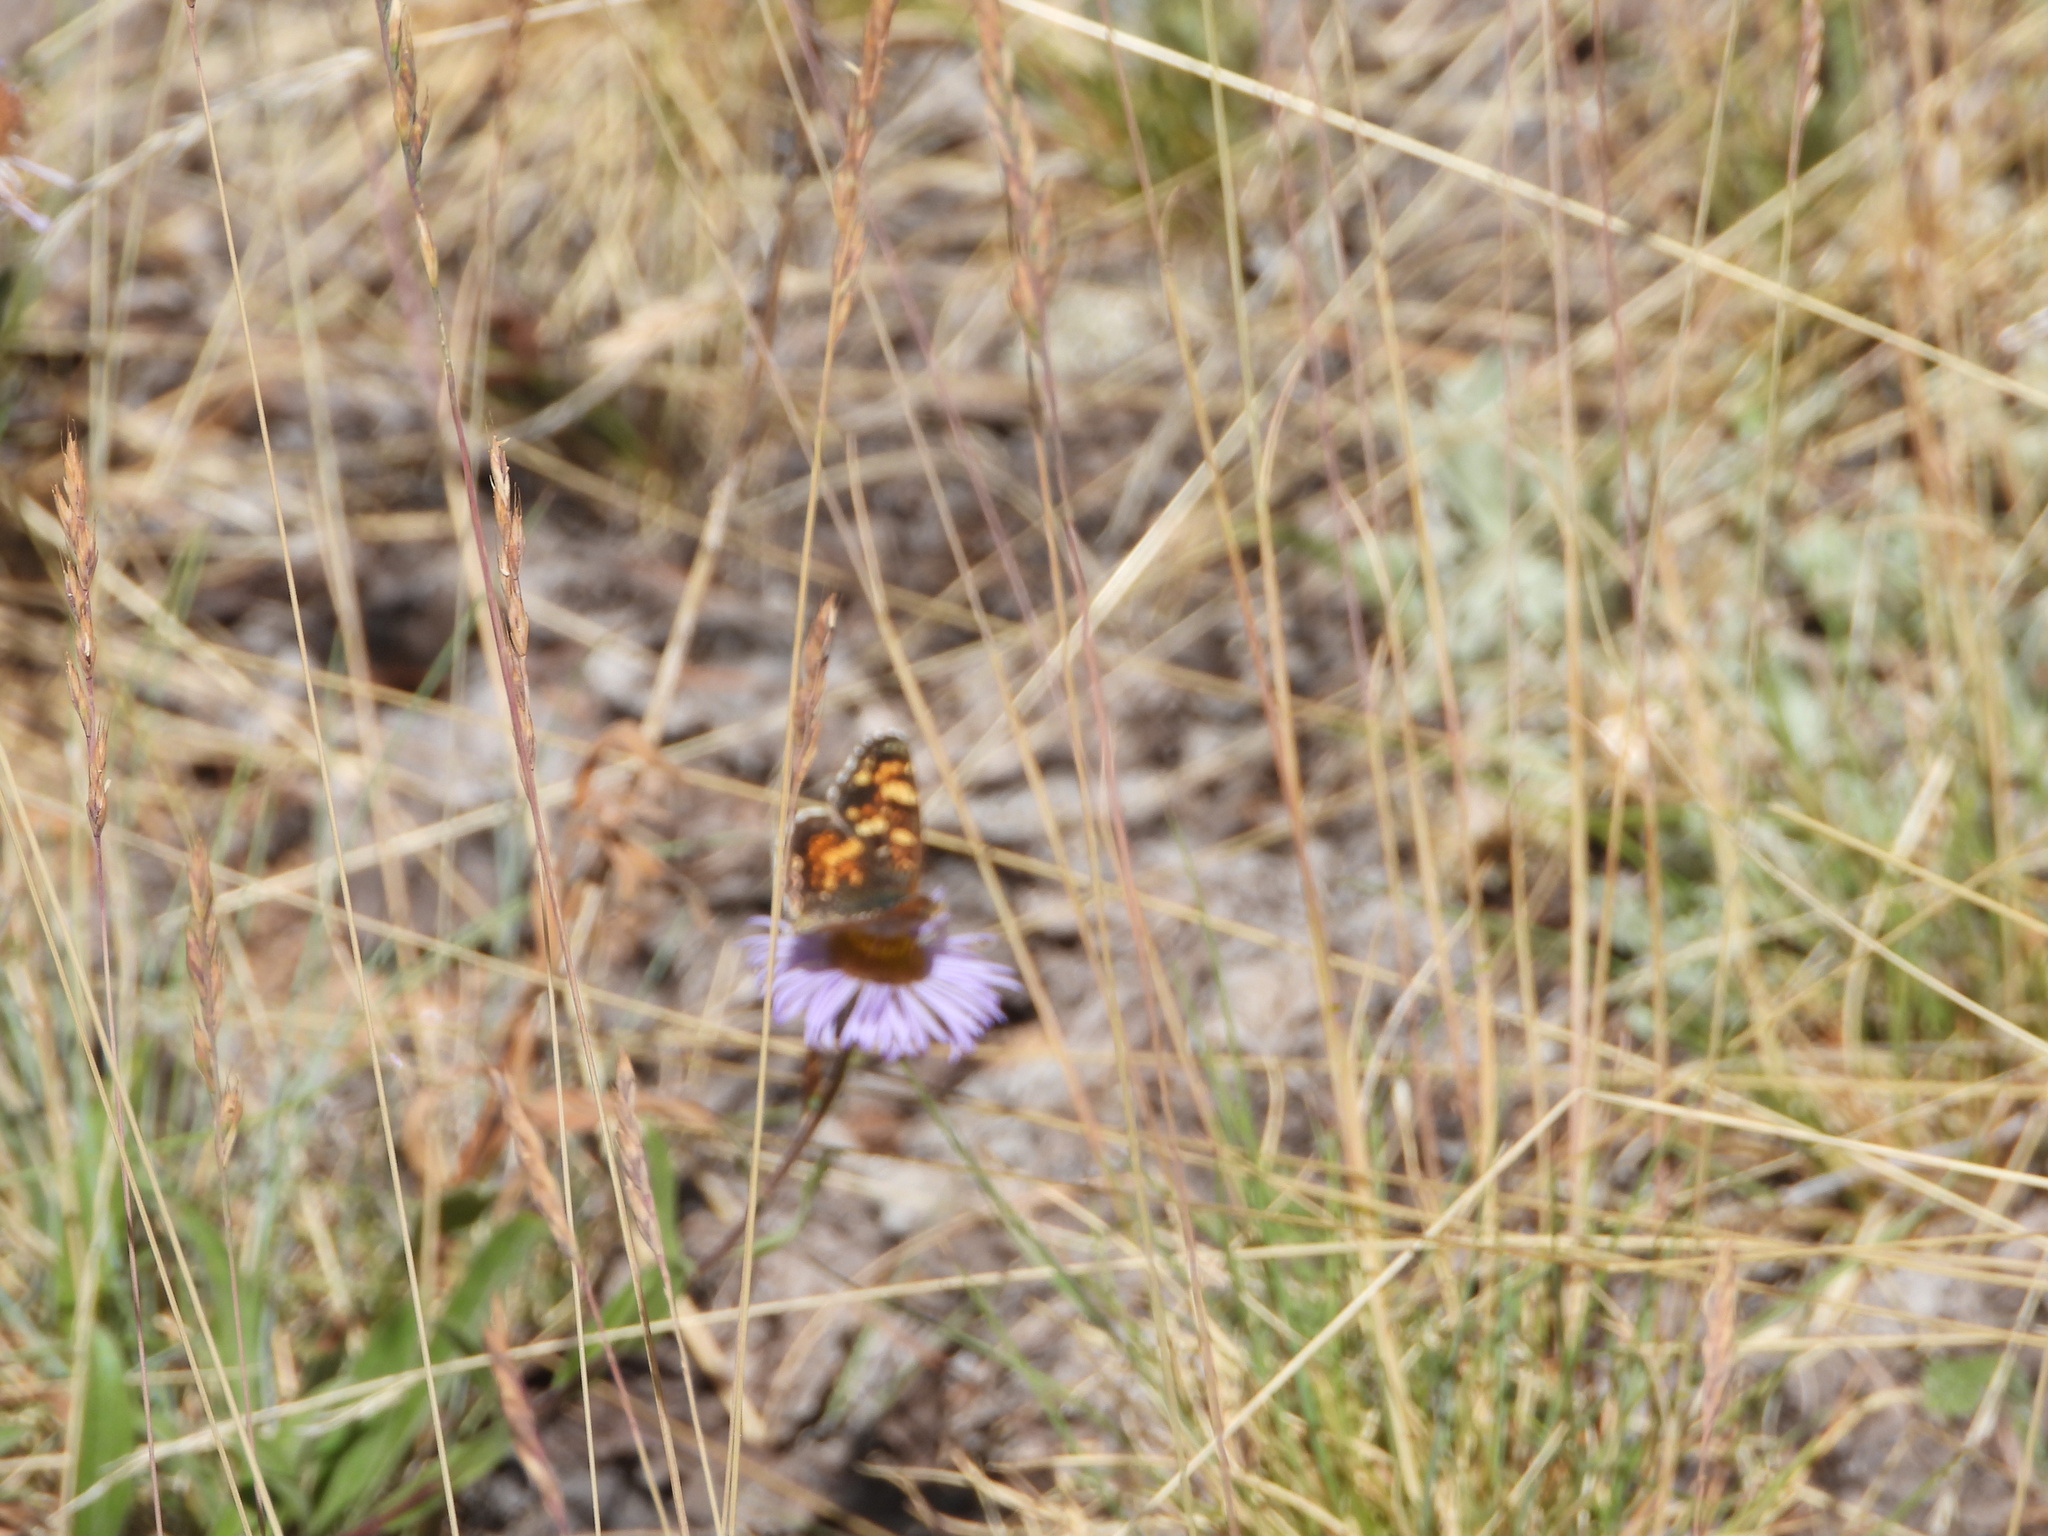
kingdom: Animalia
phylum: Arthropoda
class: Insecta
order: Lepidoptera
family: Nymphalidae
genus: Phyciodes
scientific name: Phyciodes tharos
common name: Pearl crescent
